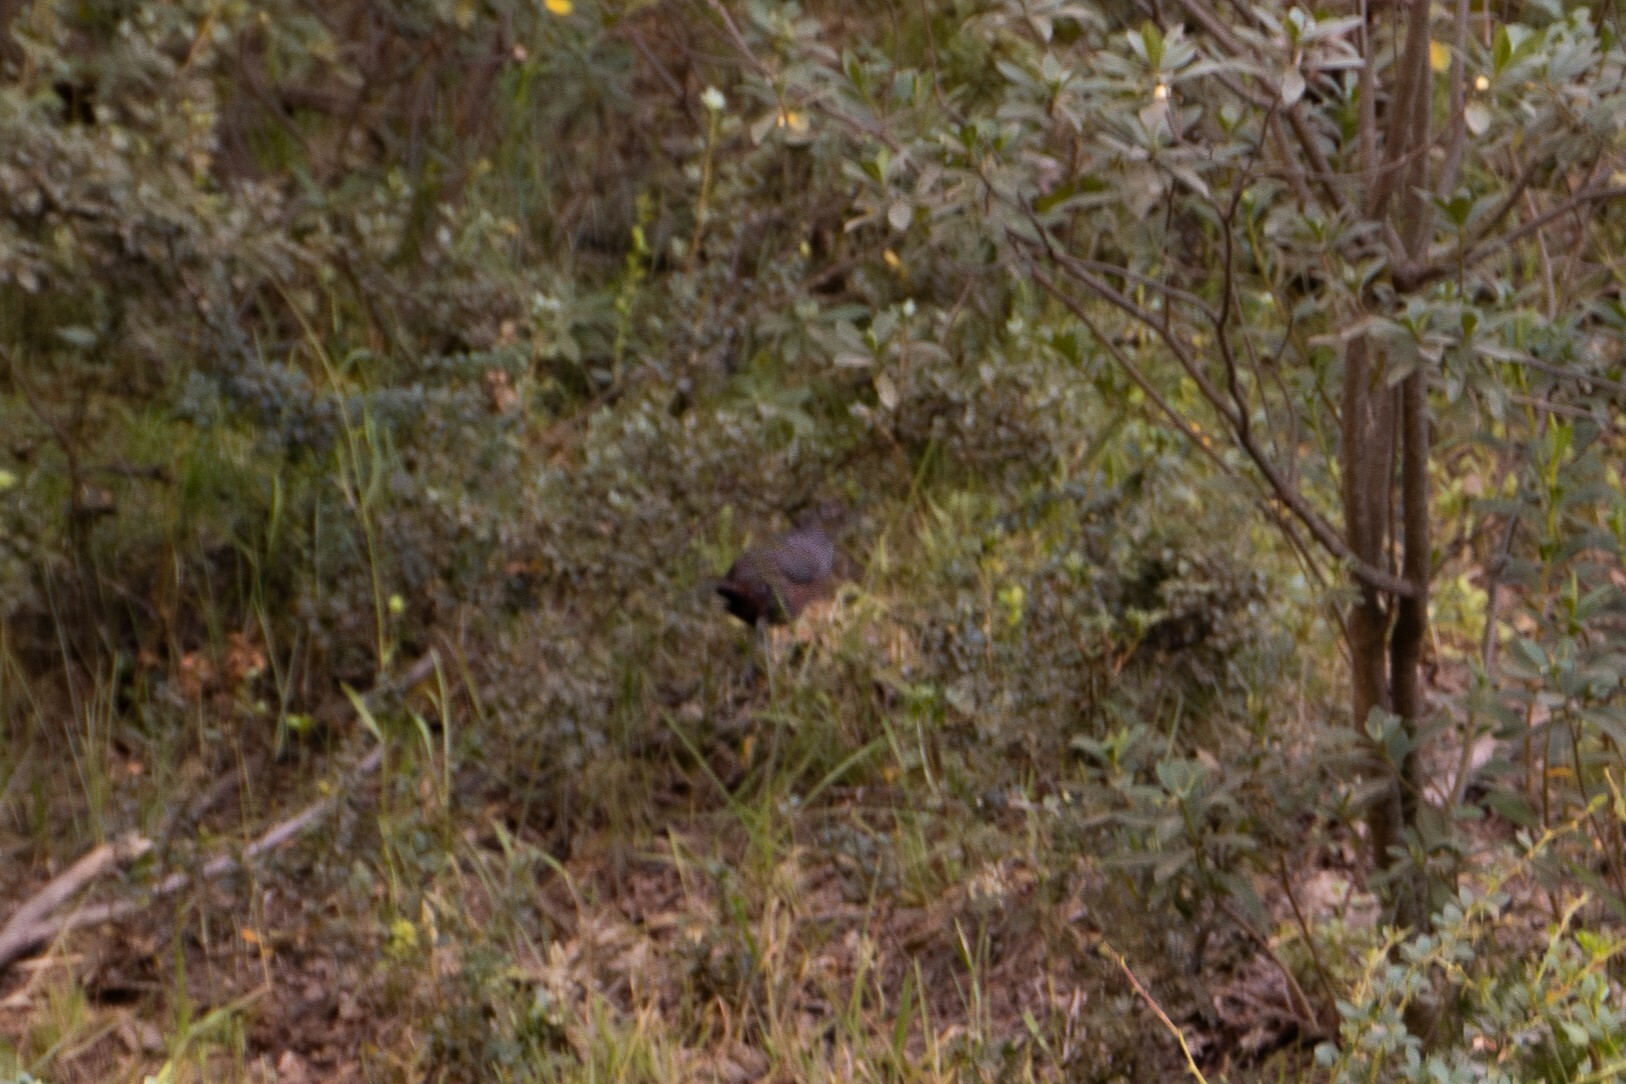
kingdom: Animalia
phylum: Chordata
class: Aves
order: Passeriformes
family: Rhinocryptidae
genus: Pteroptochos
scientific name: Pteroptochos tarnii
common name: Black-throated huet-huet
